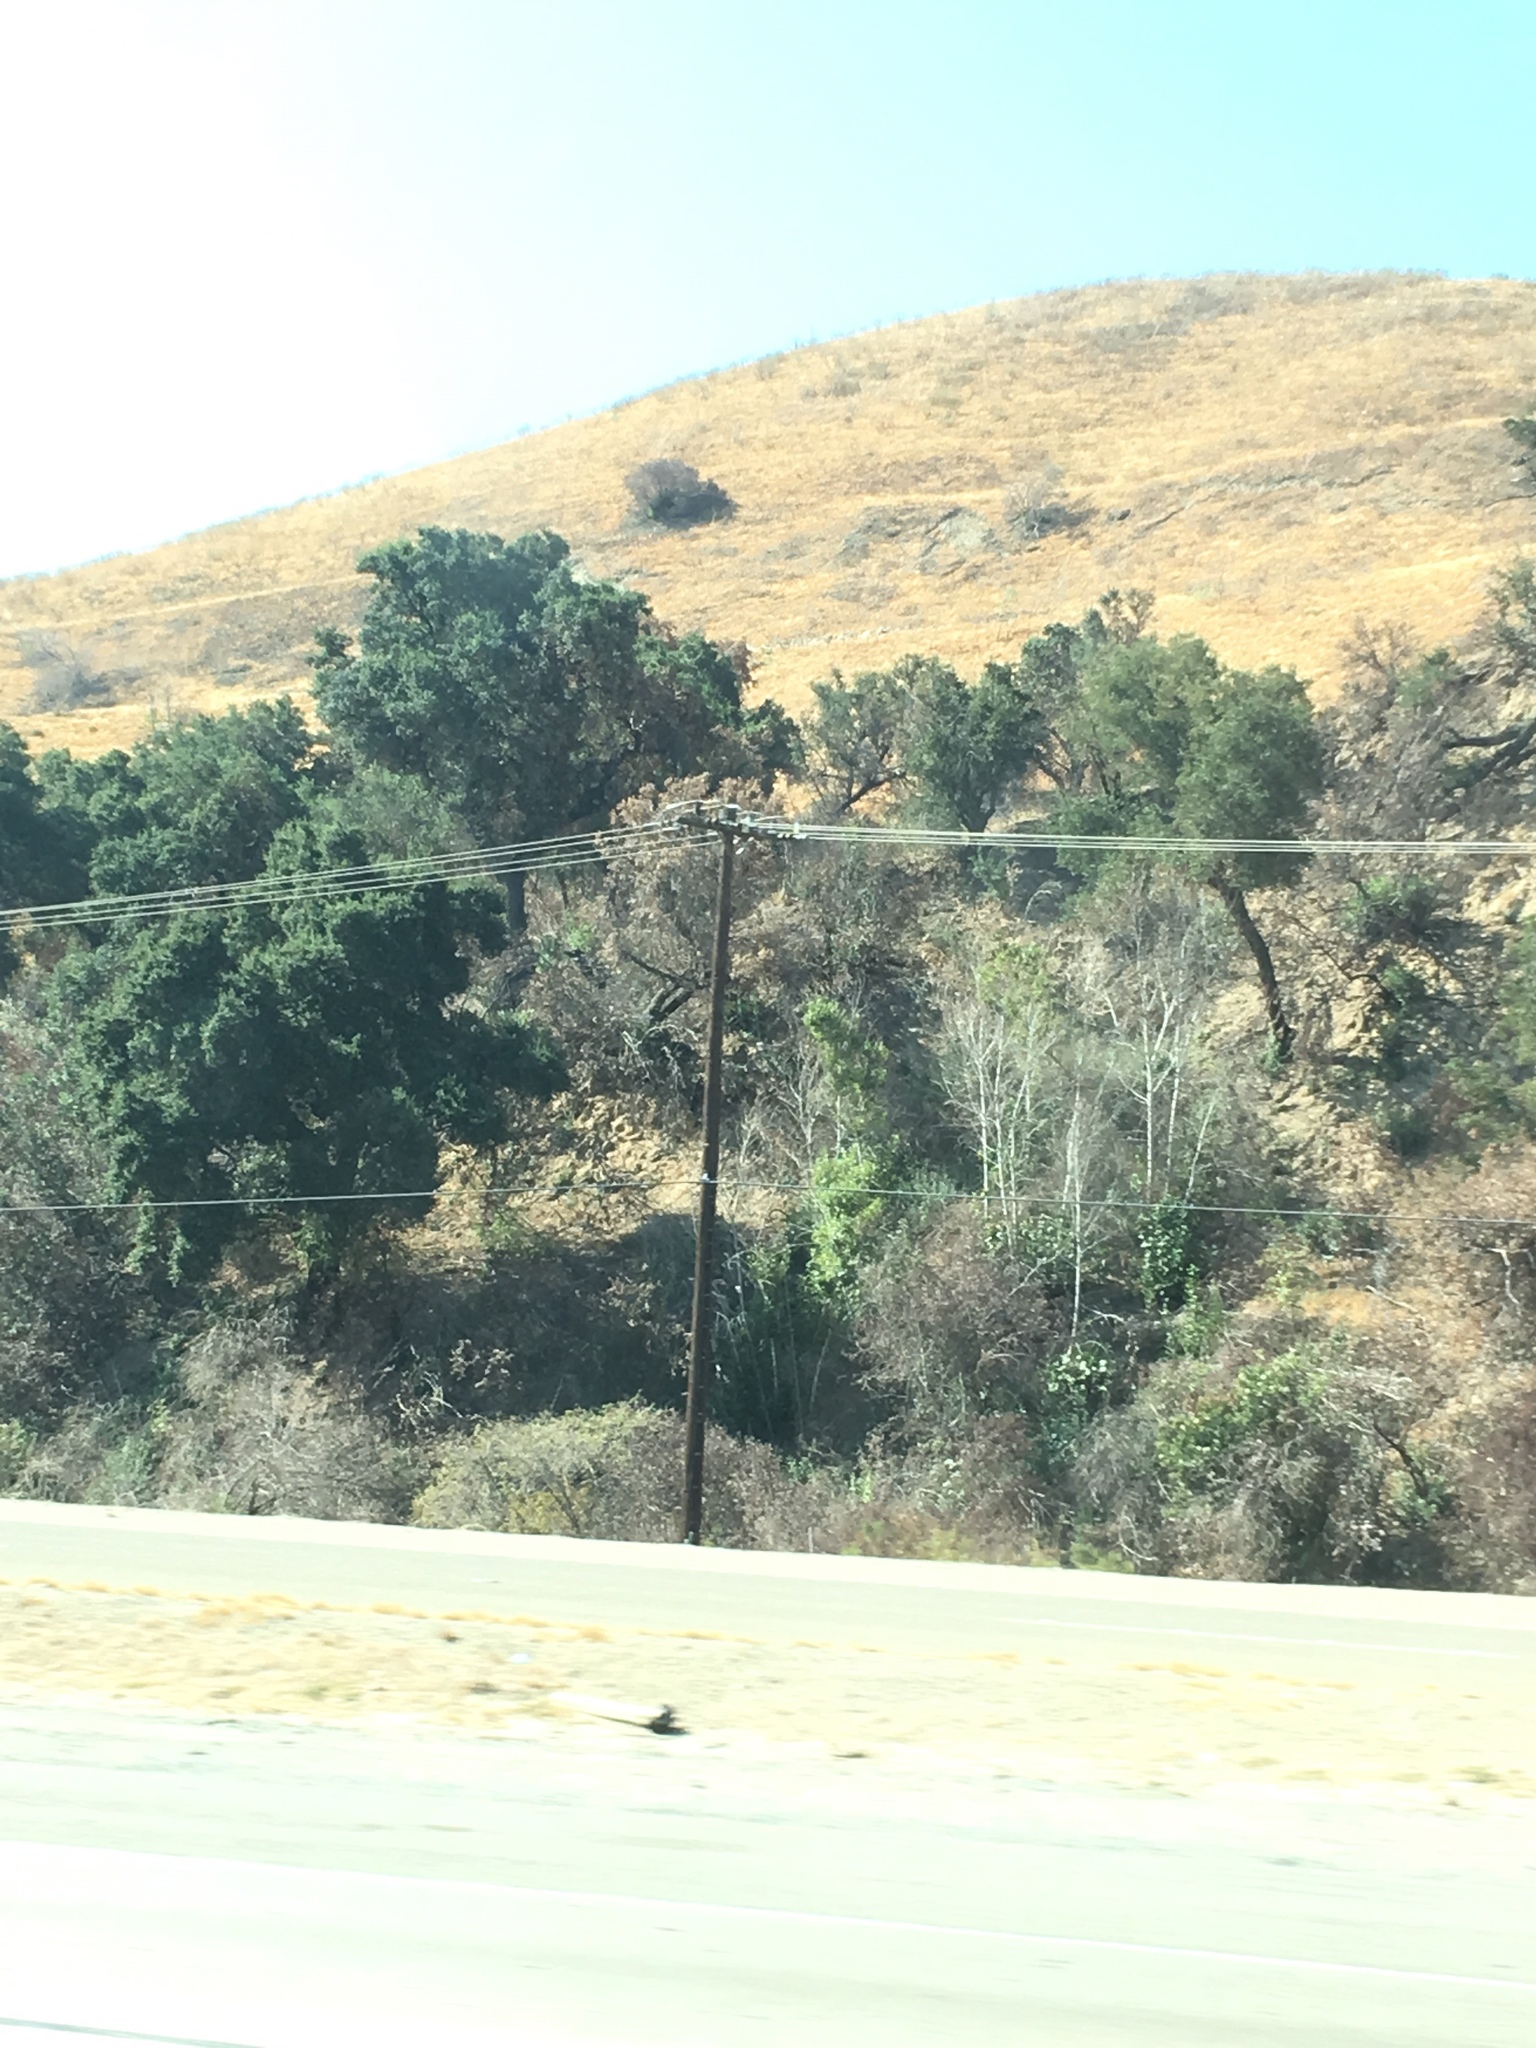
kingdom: Plantae
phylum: Tracheophyta
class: Magnoliopsida
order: Fagales
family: Fagaceae
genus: Quercus
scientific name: Quercus agrifolia
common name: California live oak
